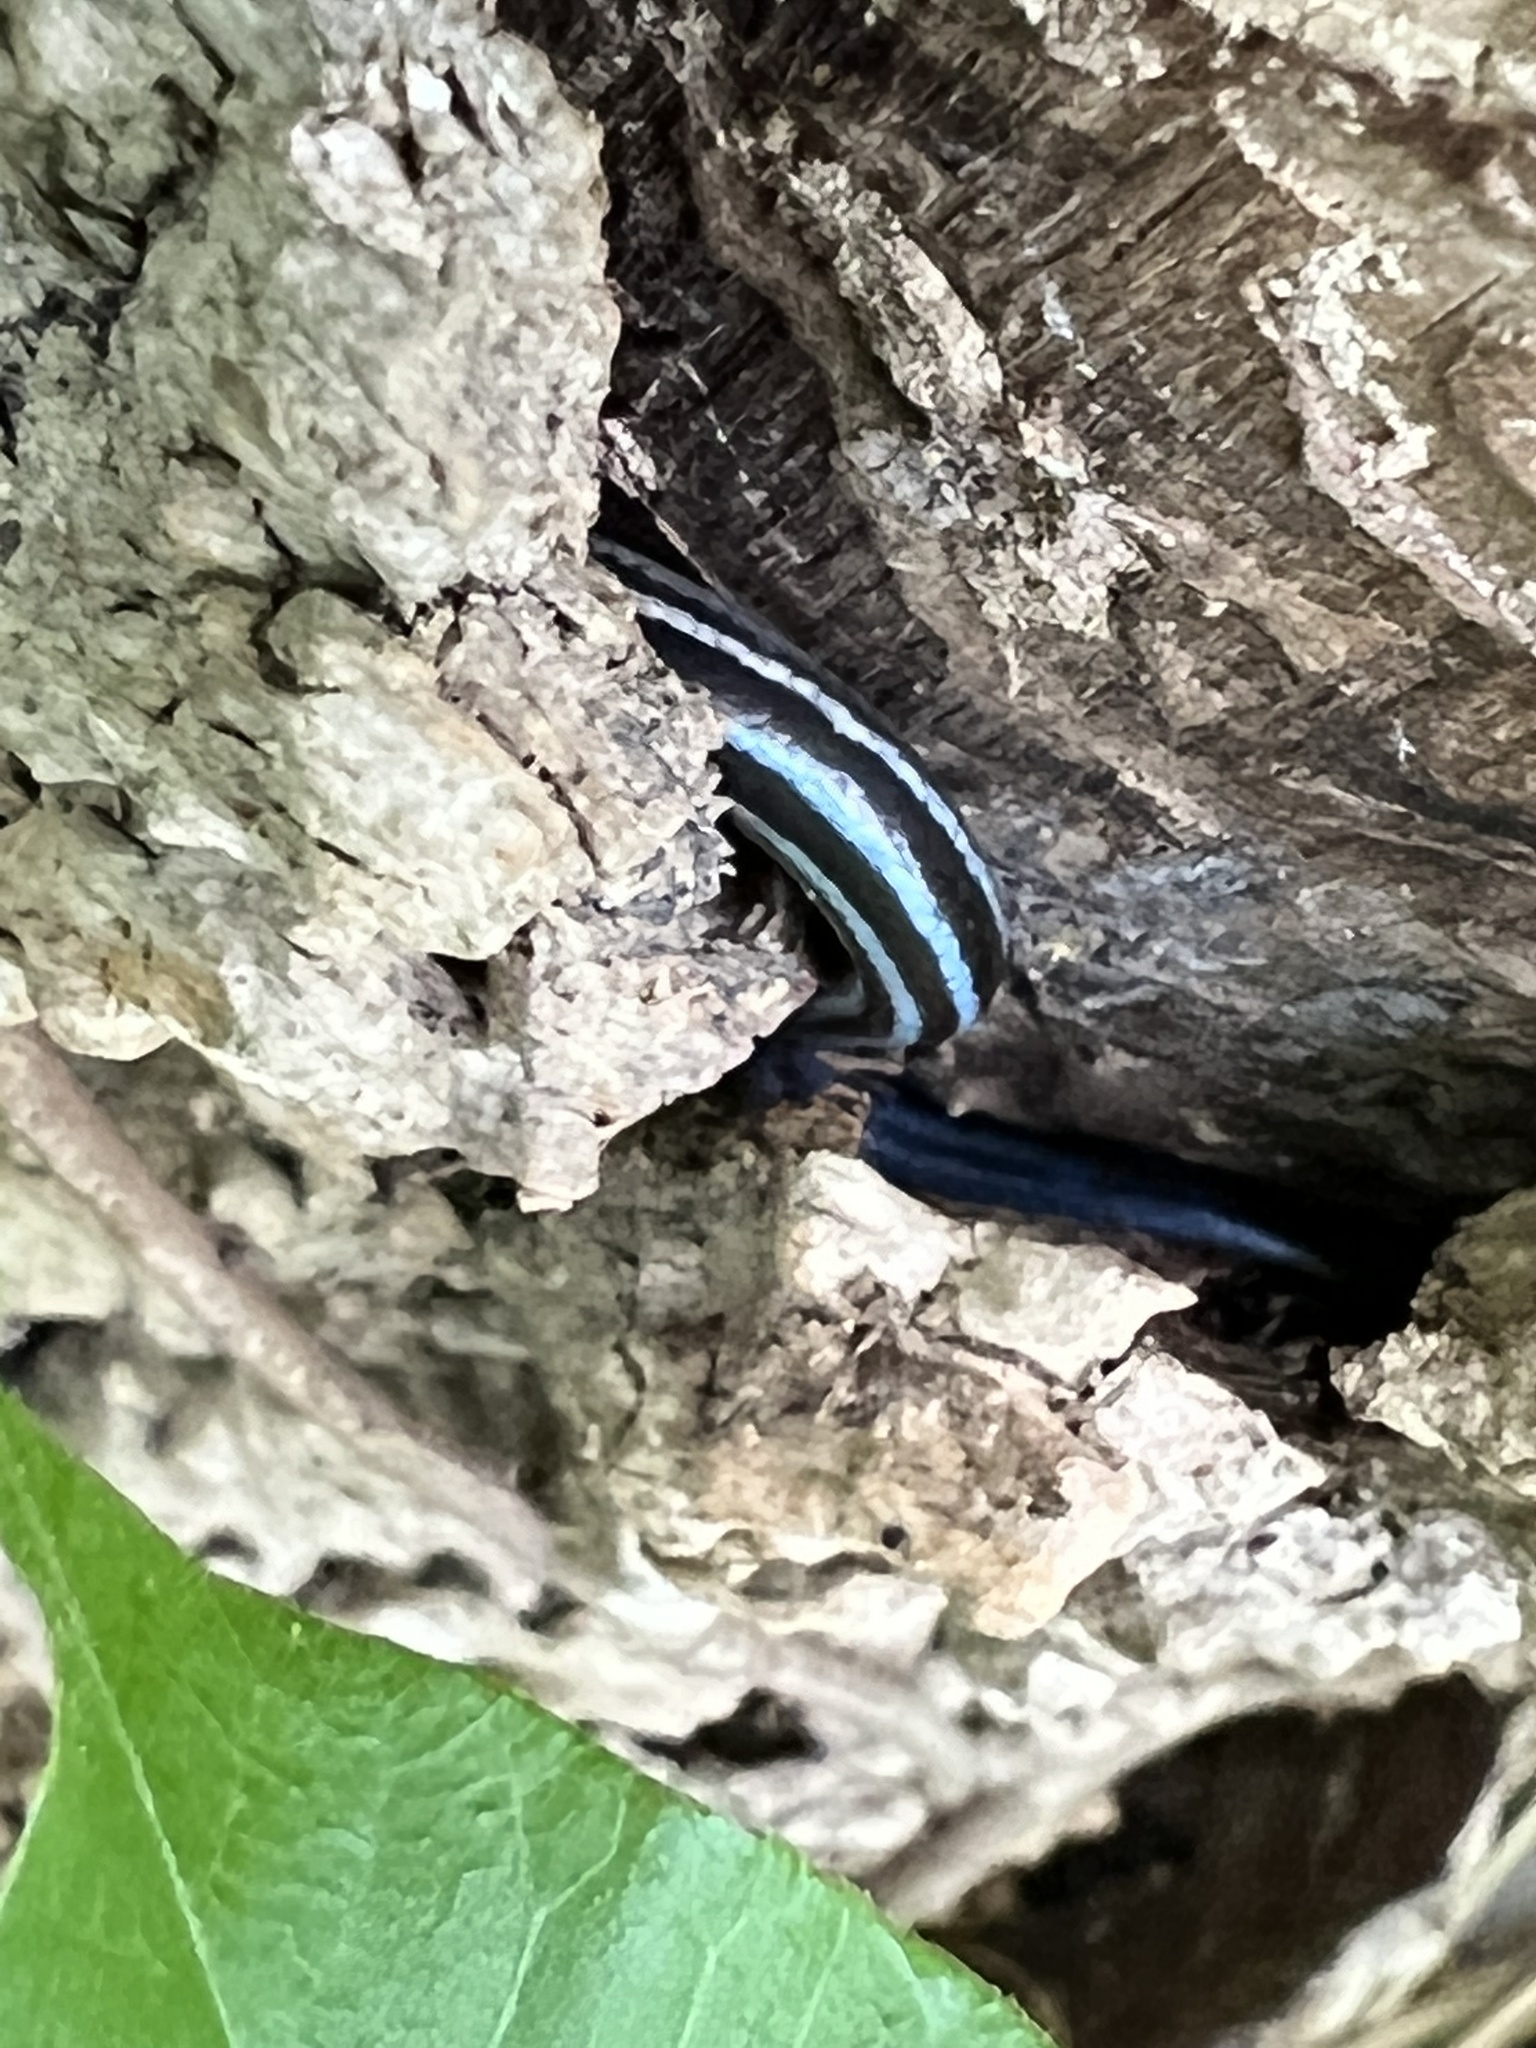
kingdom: Animalia
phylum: Chordata
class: Squamata
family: Scincidae
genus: Plestiodon
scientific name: Plestiodon laticeps
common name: Broadhead skink
